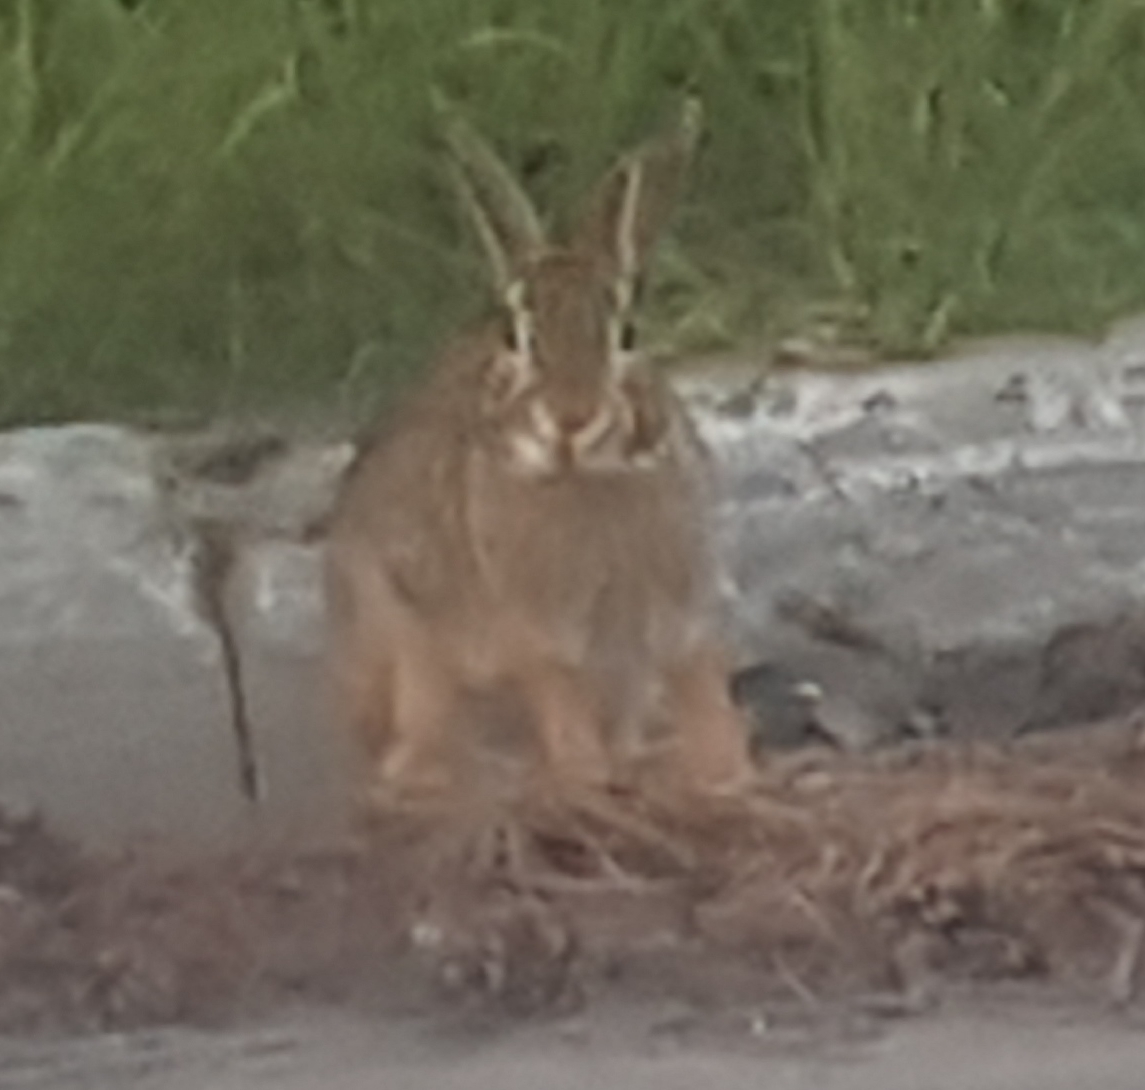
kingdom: Animalia
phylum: Chordata
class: Mammalia
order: Lagomorpha
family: Leporidae
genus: Sylvilagus
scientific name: Sylvilagus floridanus
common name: Eastern cottontail
